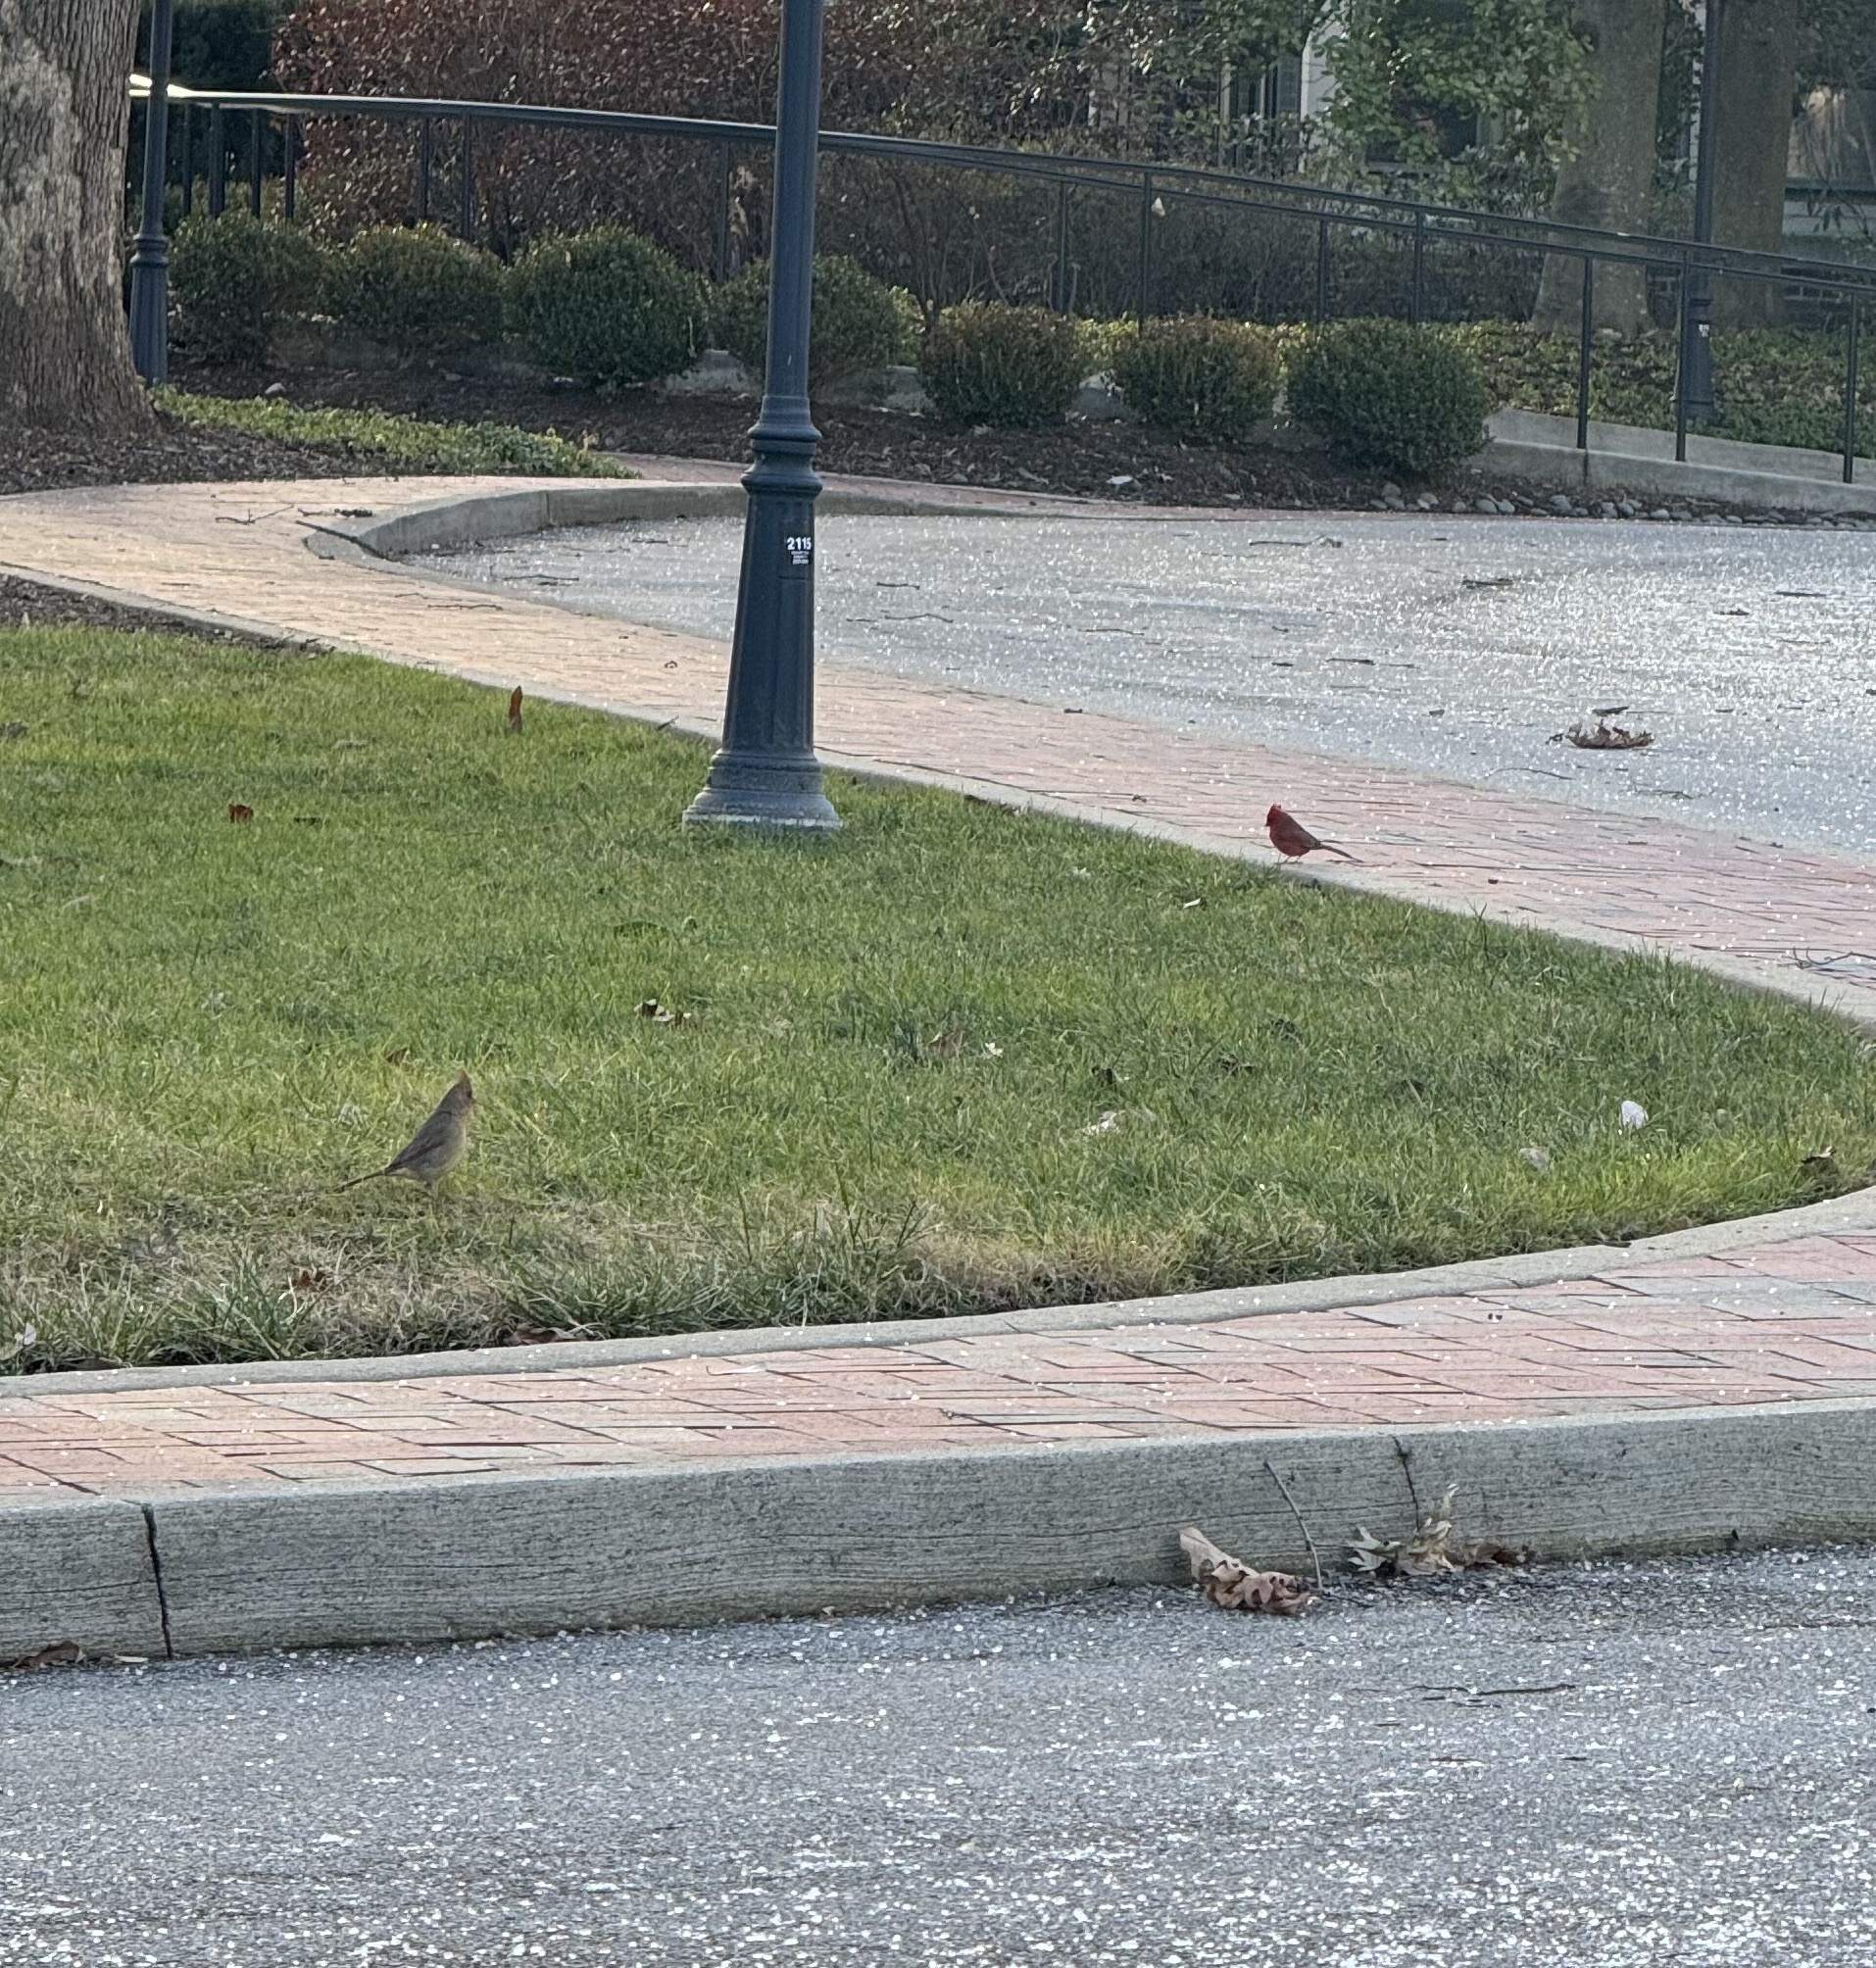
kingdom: Animalia
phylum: Chordata
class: Aves
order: Passeriformes
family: Cardinalidae
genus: Cardinalis
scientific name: Cardinalis cardinalis
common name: Northern cardinal
